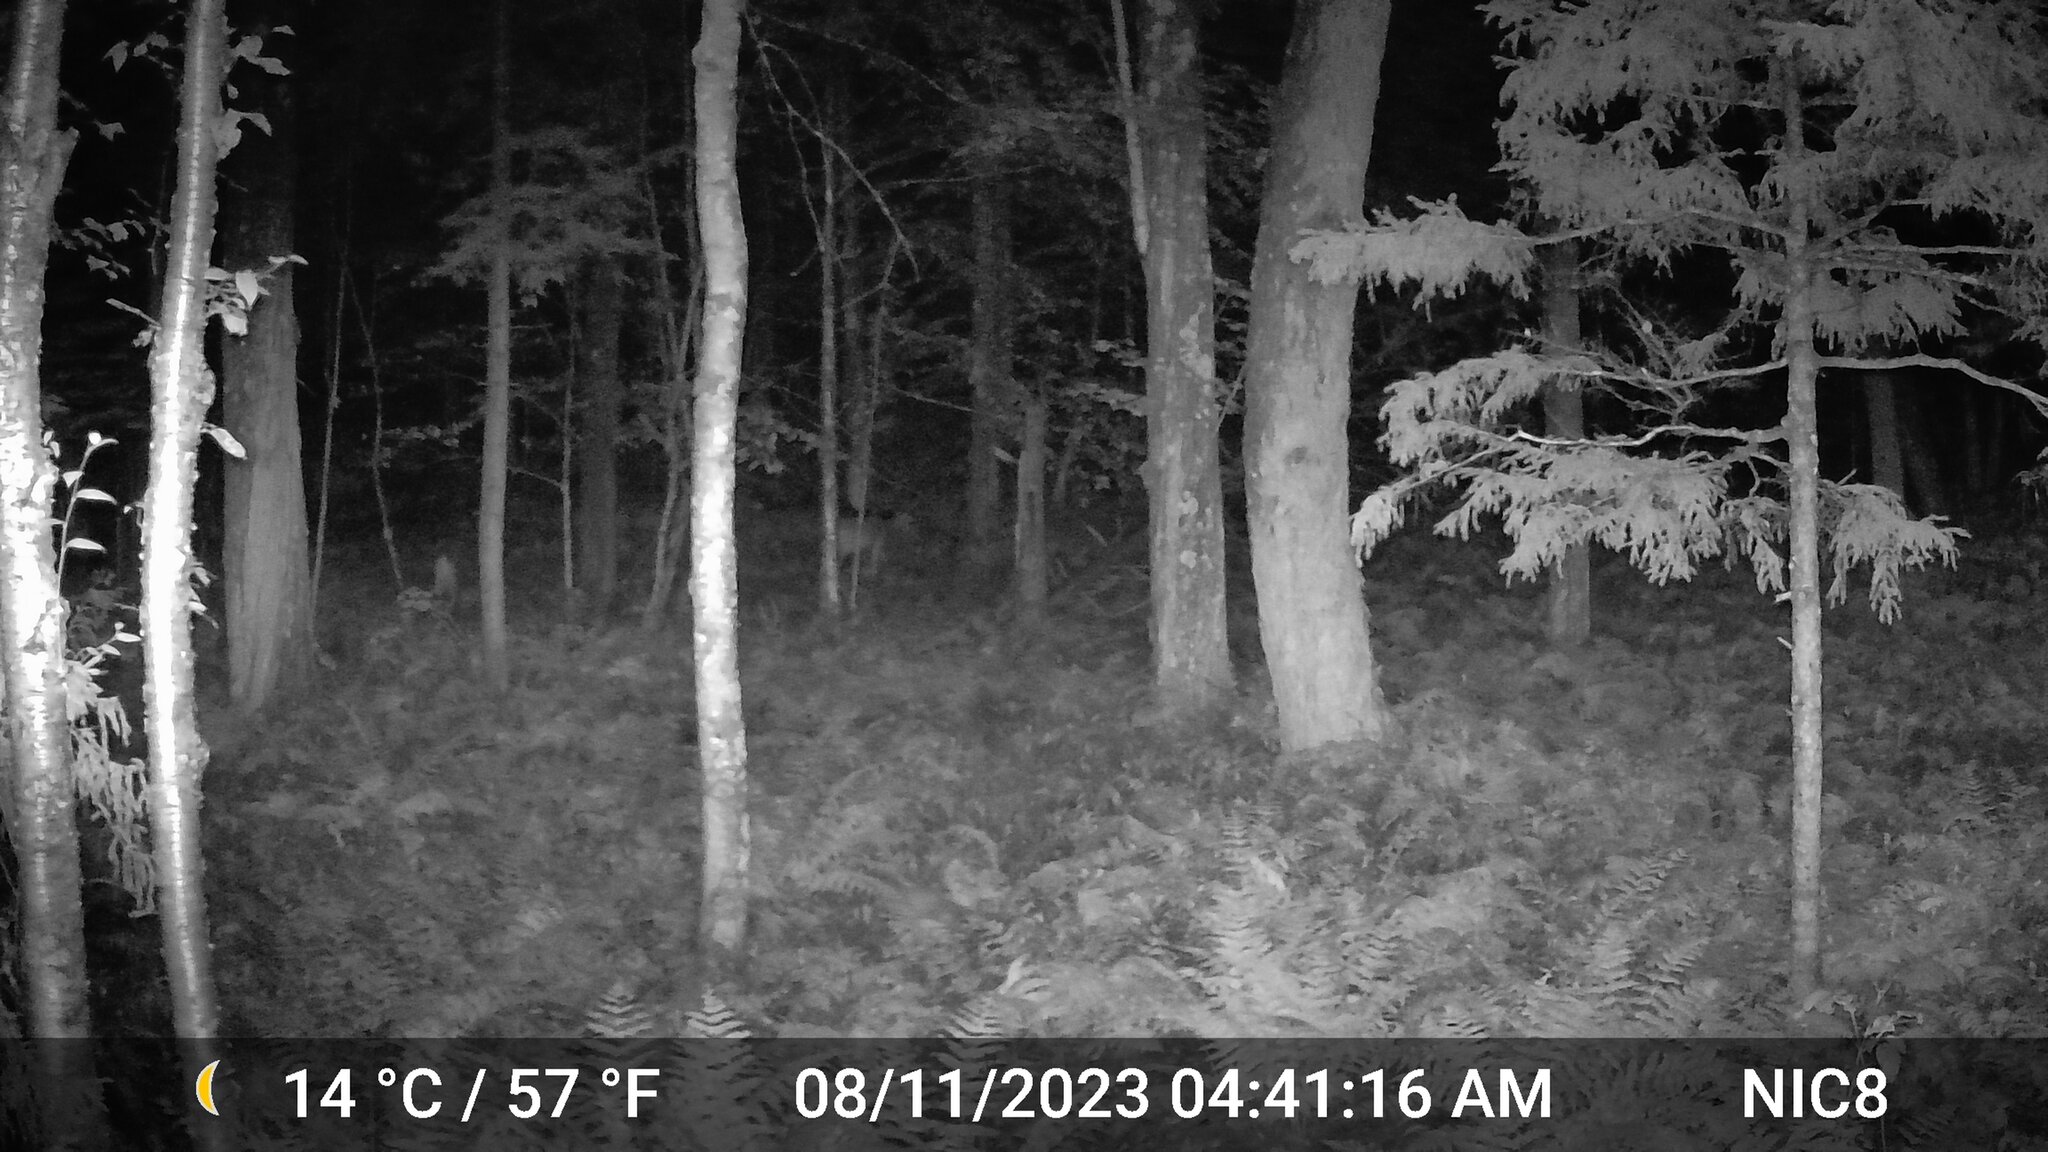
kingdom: Animalia
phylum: Chordata
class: Mammalia
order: Artiodactyla
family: Cervidae
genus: Odocoileus
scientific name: Odocoileus virginianus
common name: White-tailed deer
